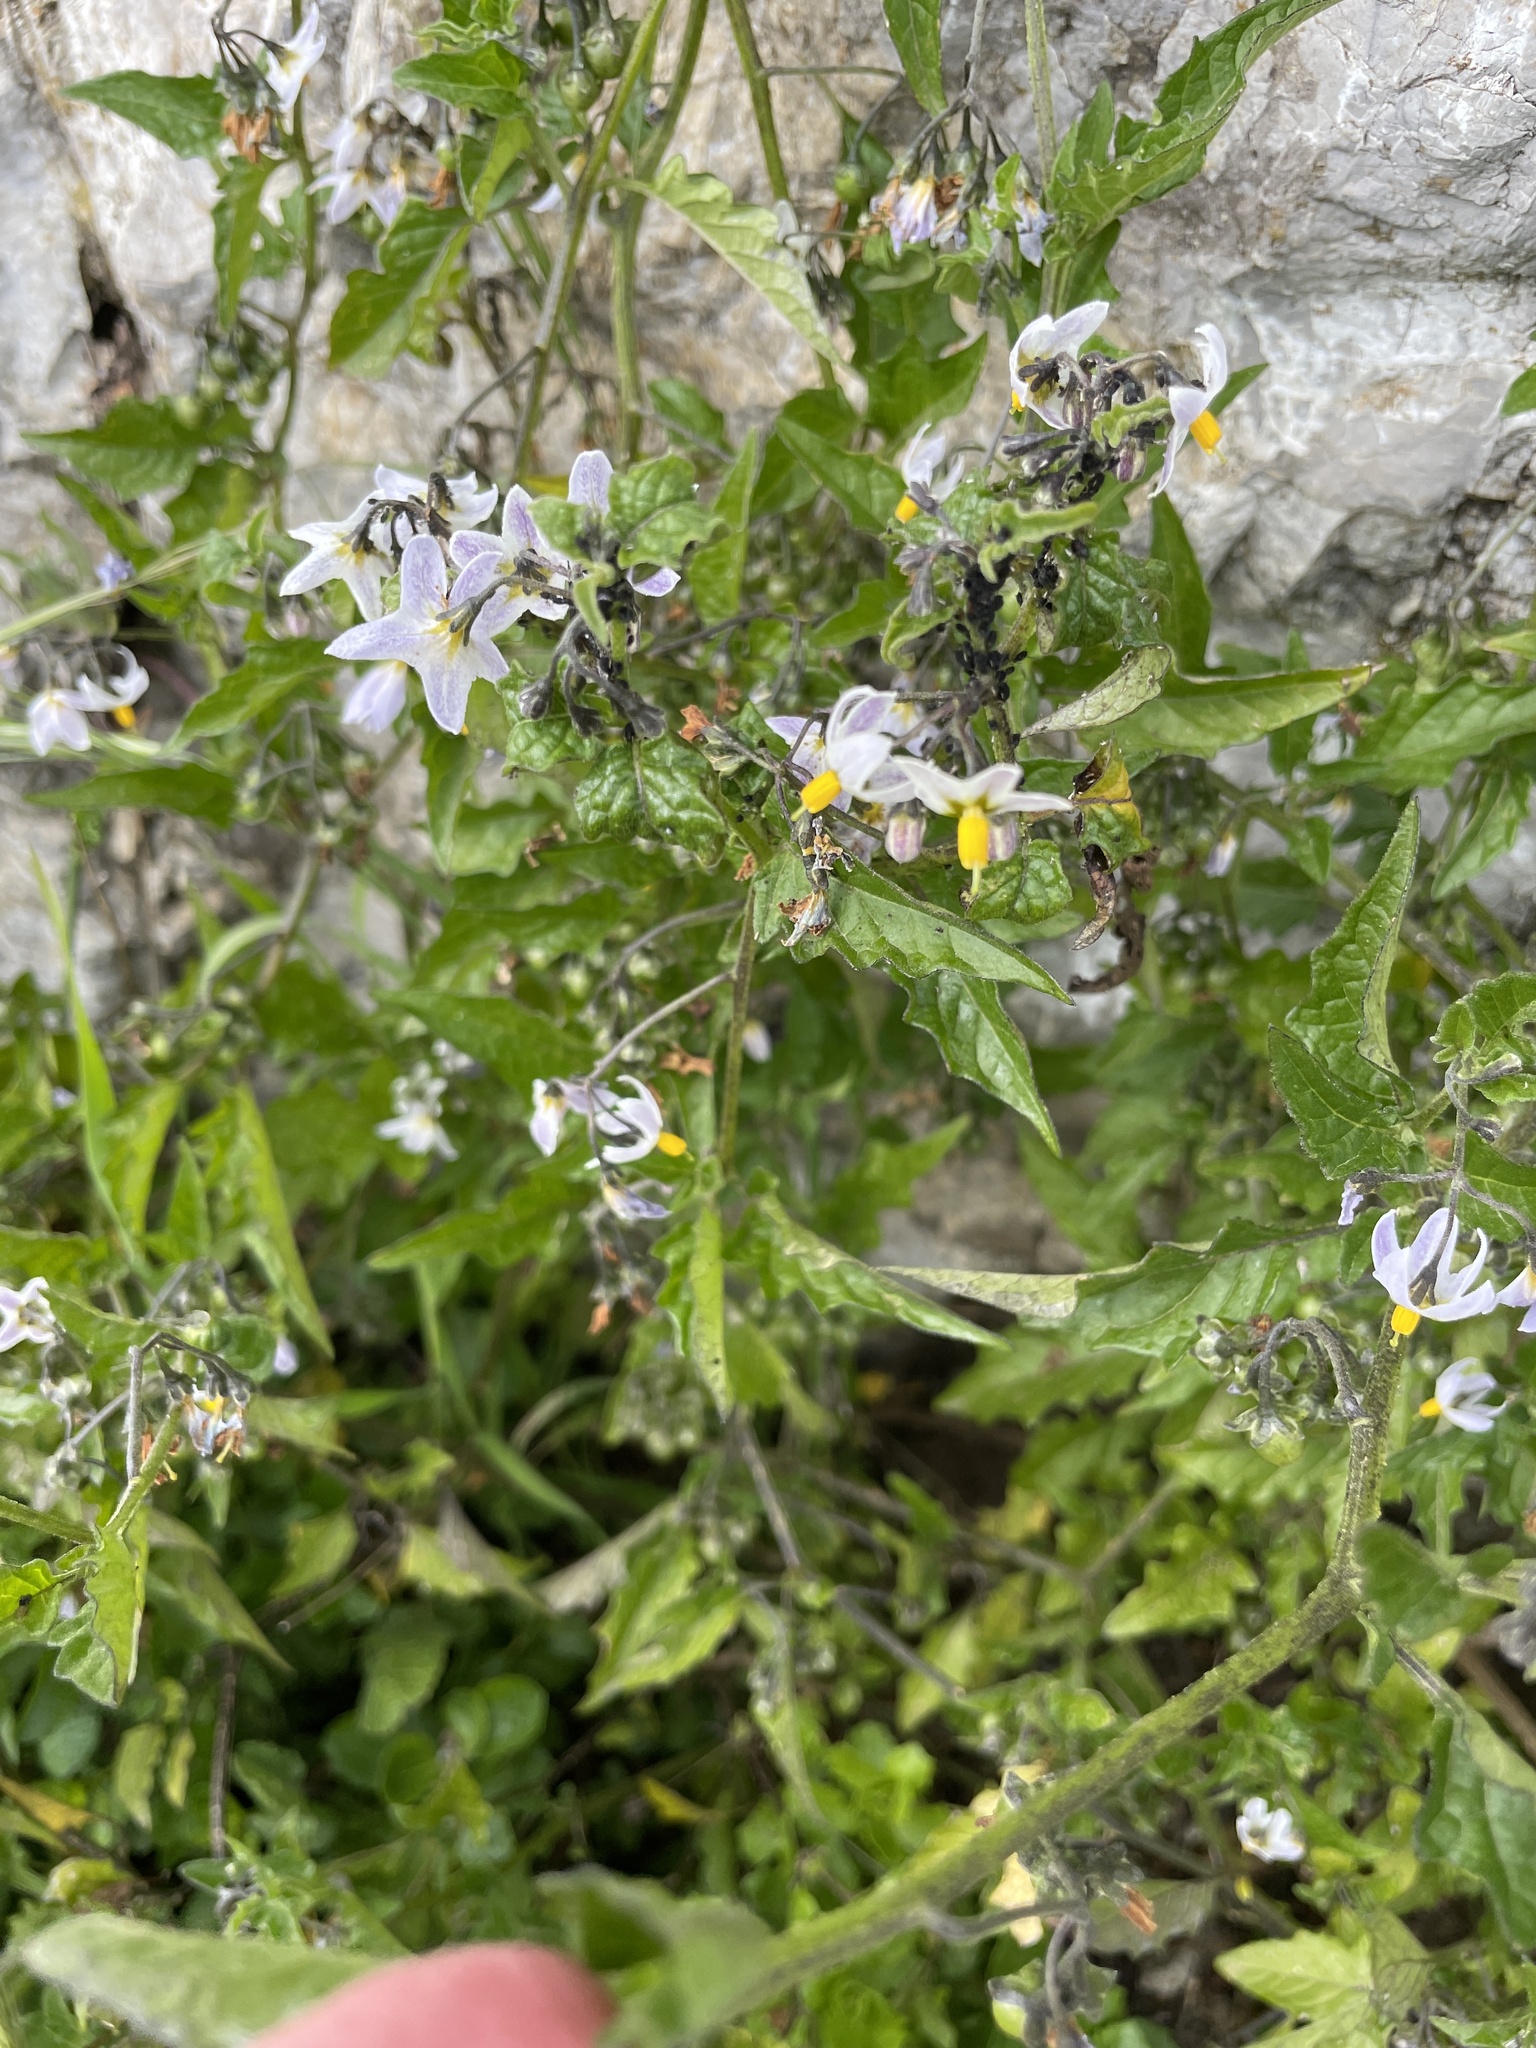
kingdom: Plantae
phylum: Tracheophyta
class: Magnoliopsida
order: Solanales
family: Solanaceae
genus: Solanum
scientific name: Solanum furcatum
